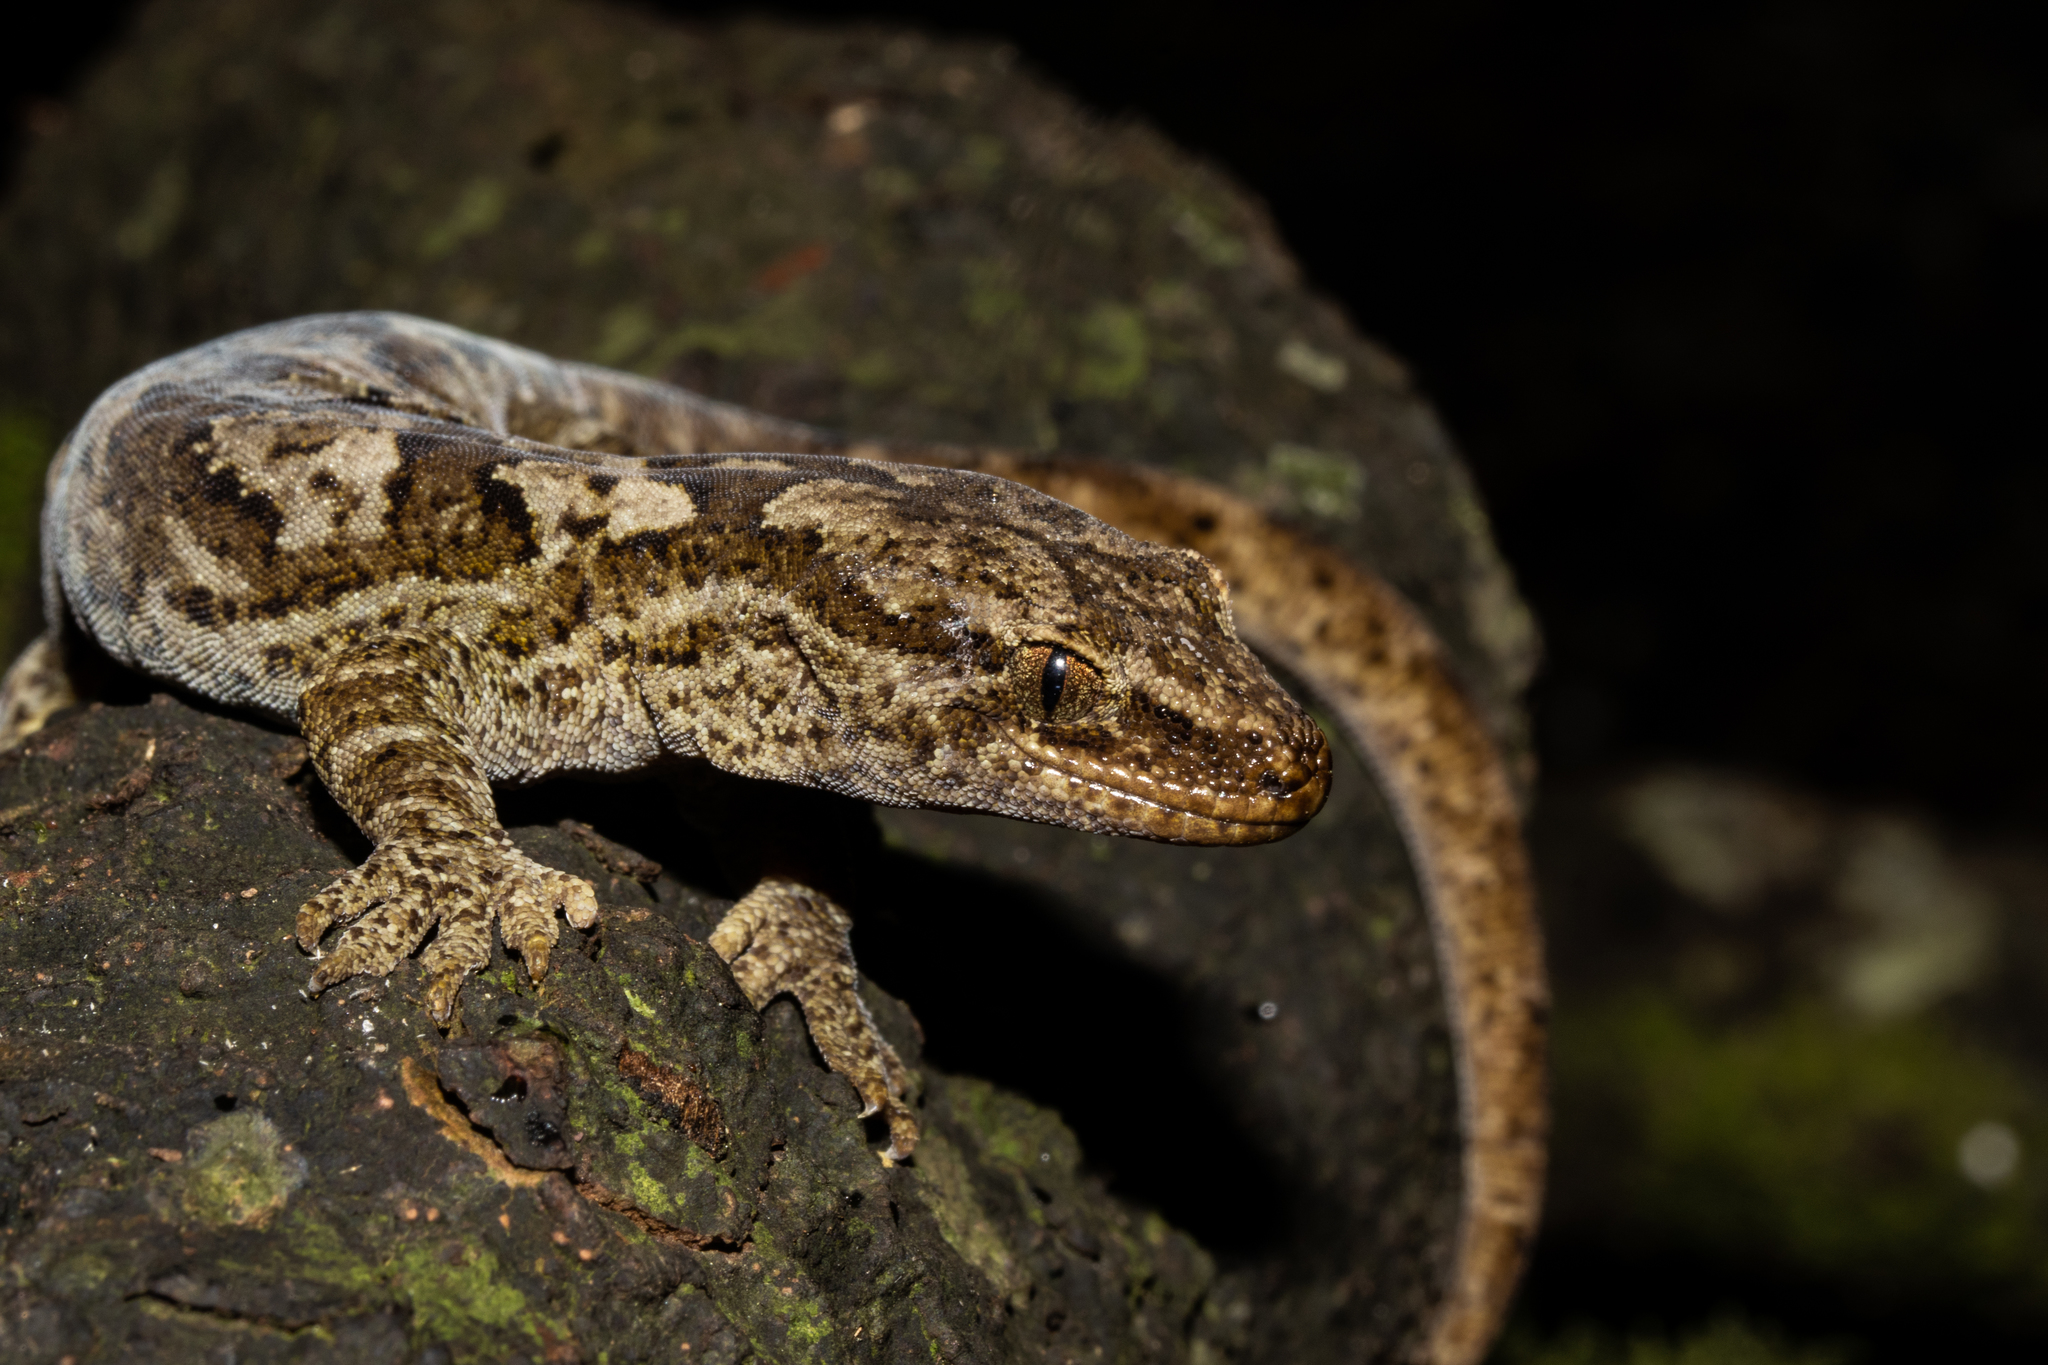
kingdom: Animalia
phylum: Chordata
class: Squamata
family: Diplodactylidae
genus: Woodworthia
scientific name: Woodworthia
